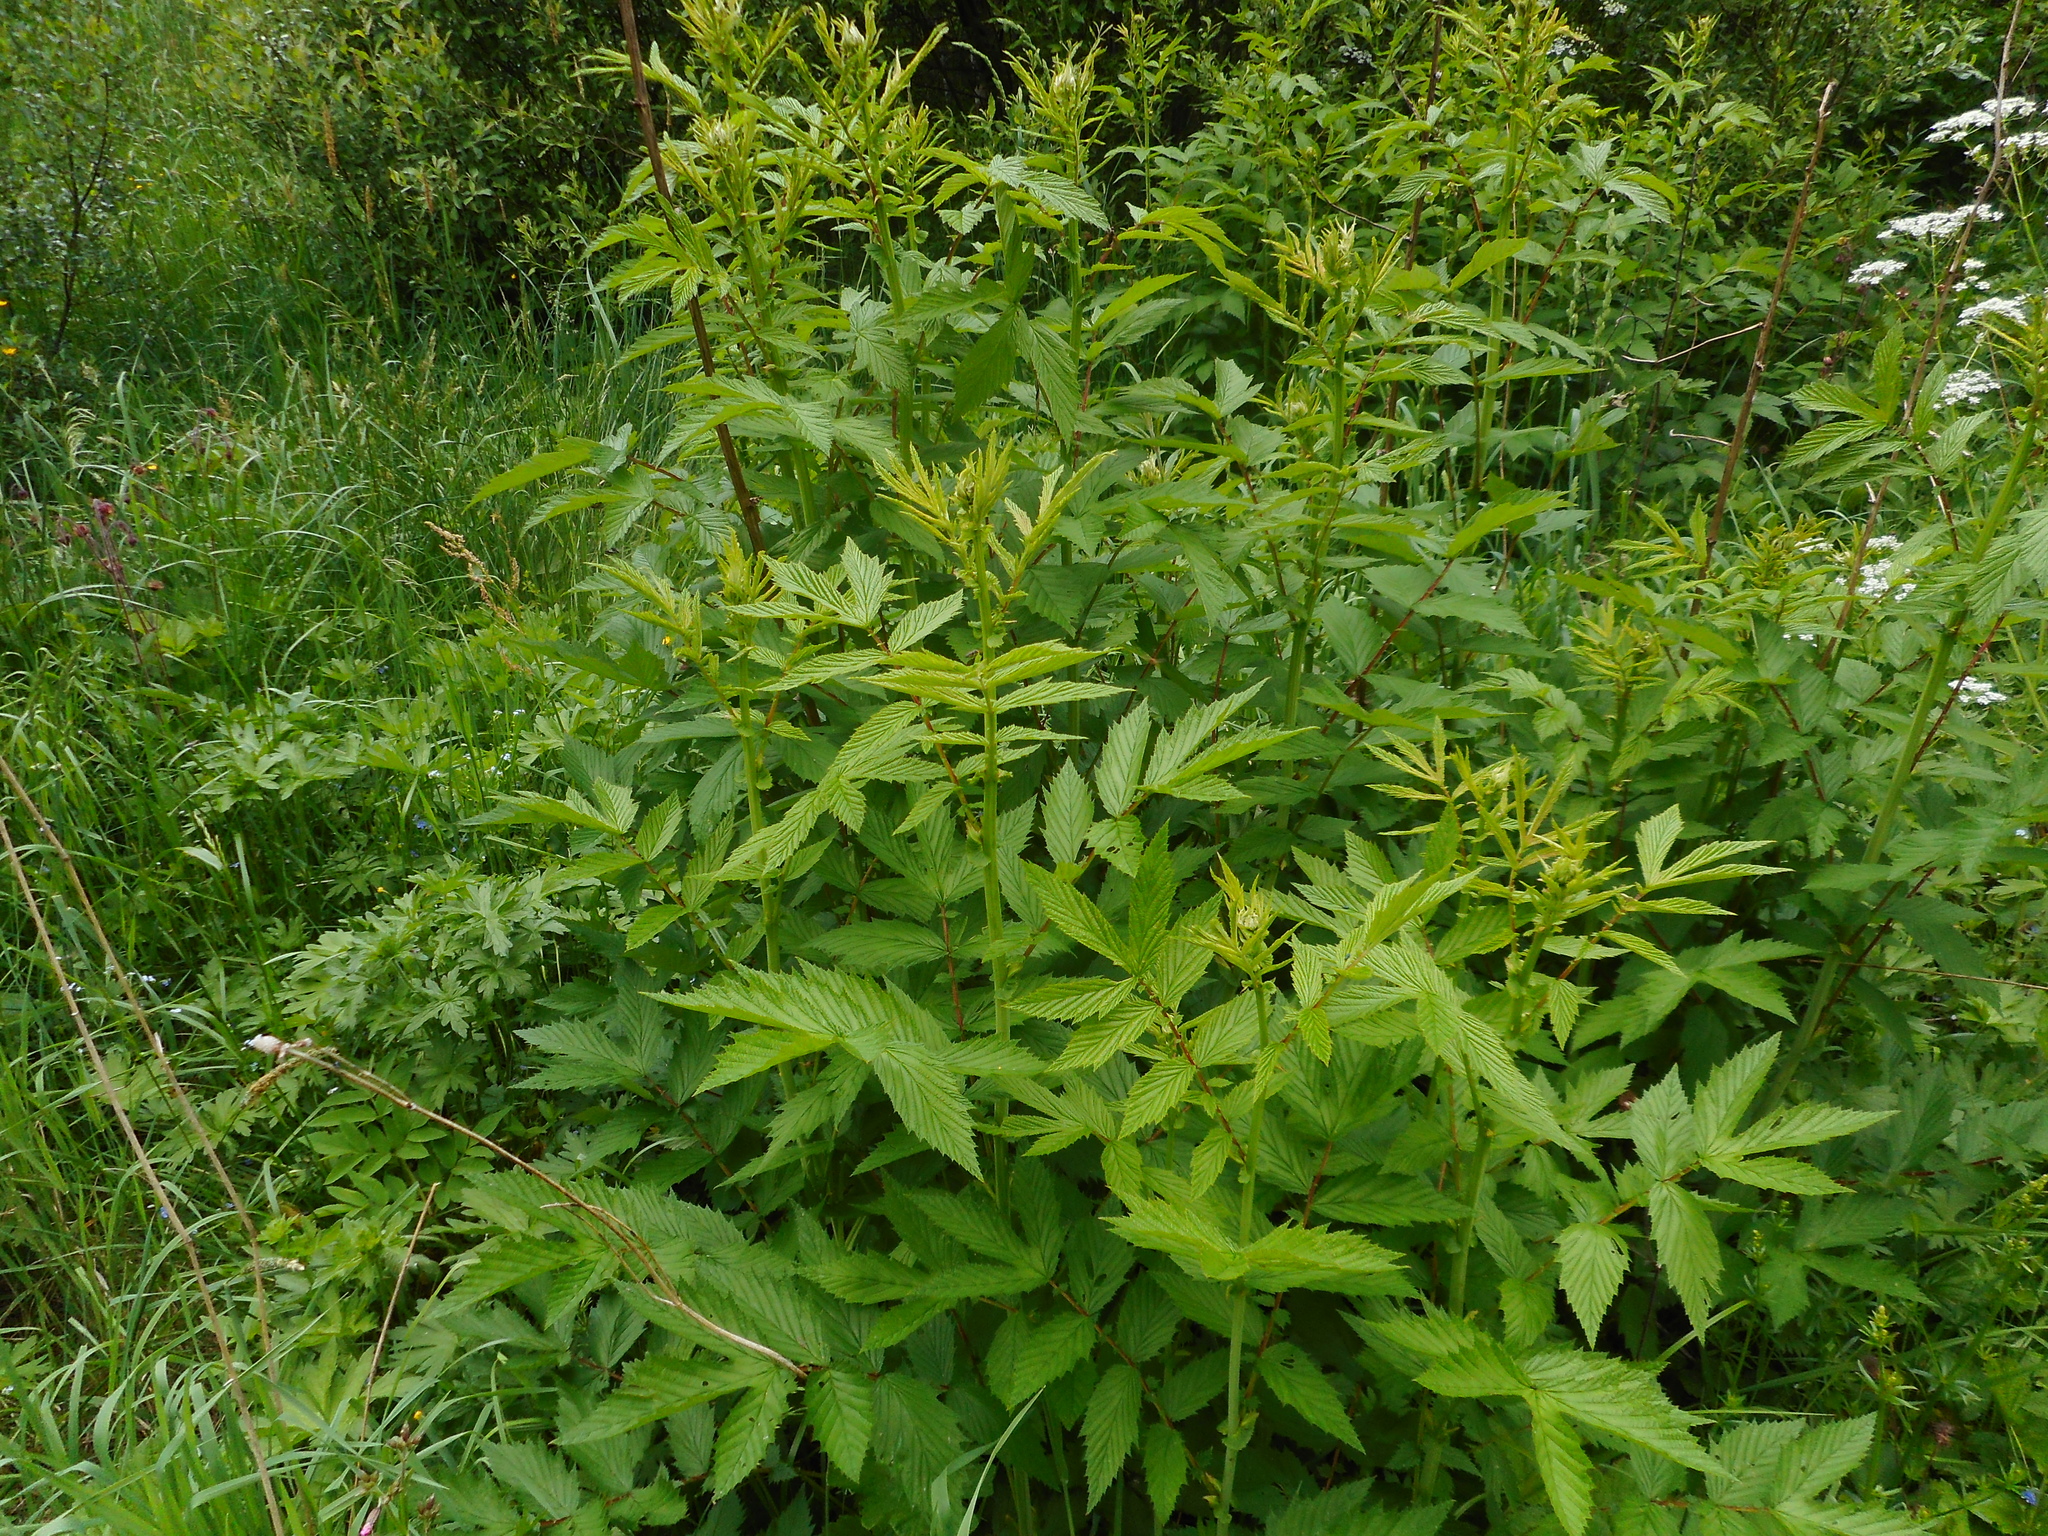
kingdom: Plantae
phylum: Tracheophyta
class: Magnoliopsida
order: Rosales
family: Rosaceae
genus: Filipendula
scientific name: Filipendula ulmaria
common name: Meadowsweet
